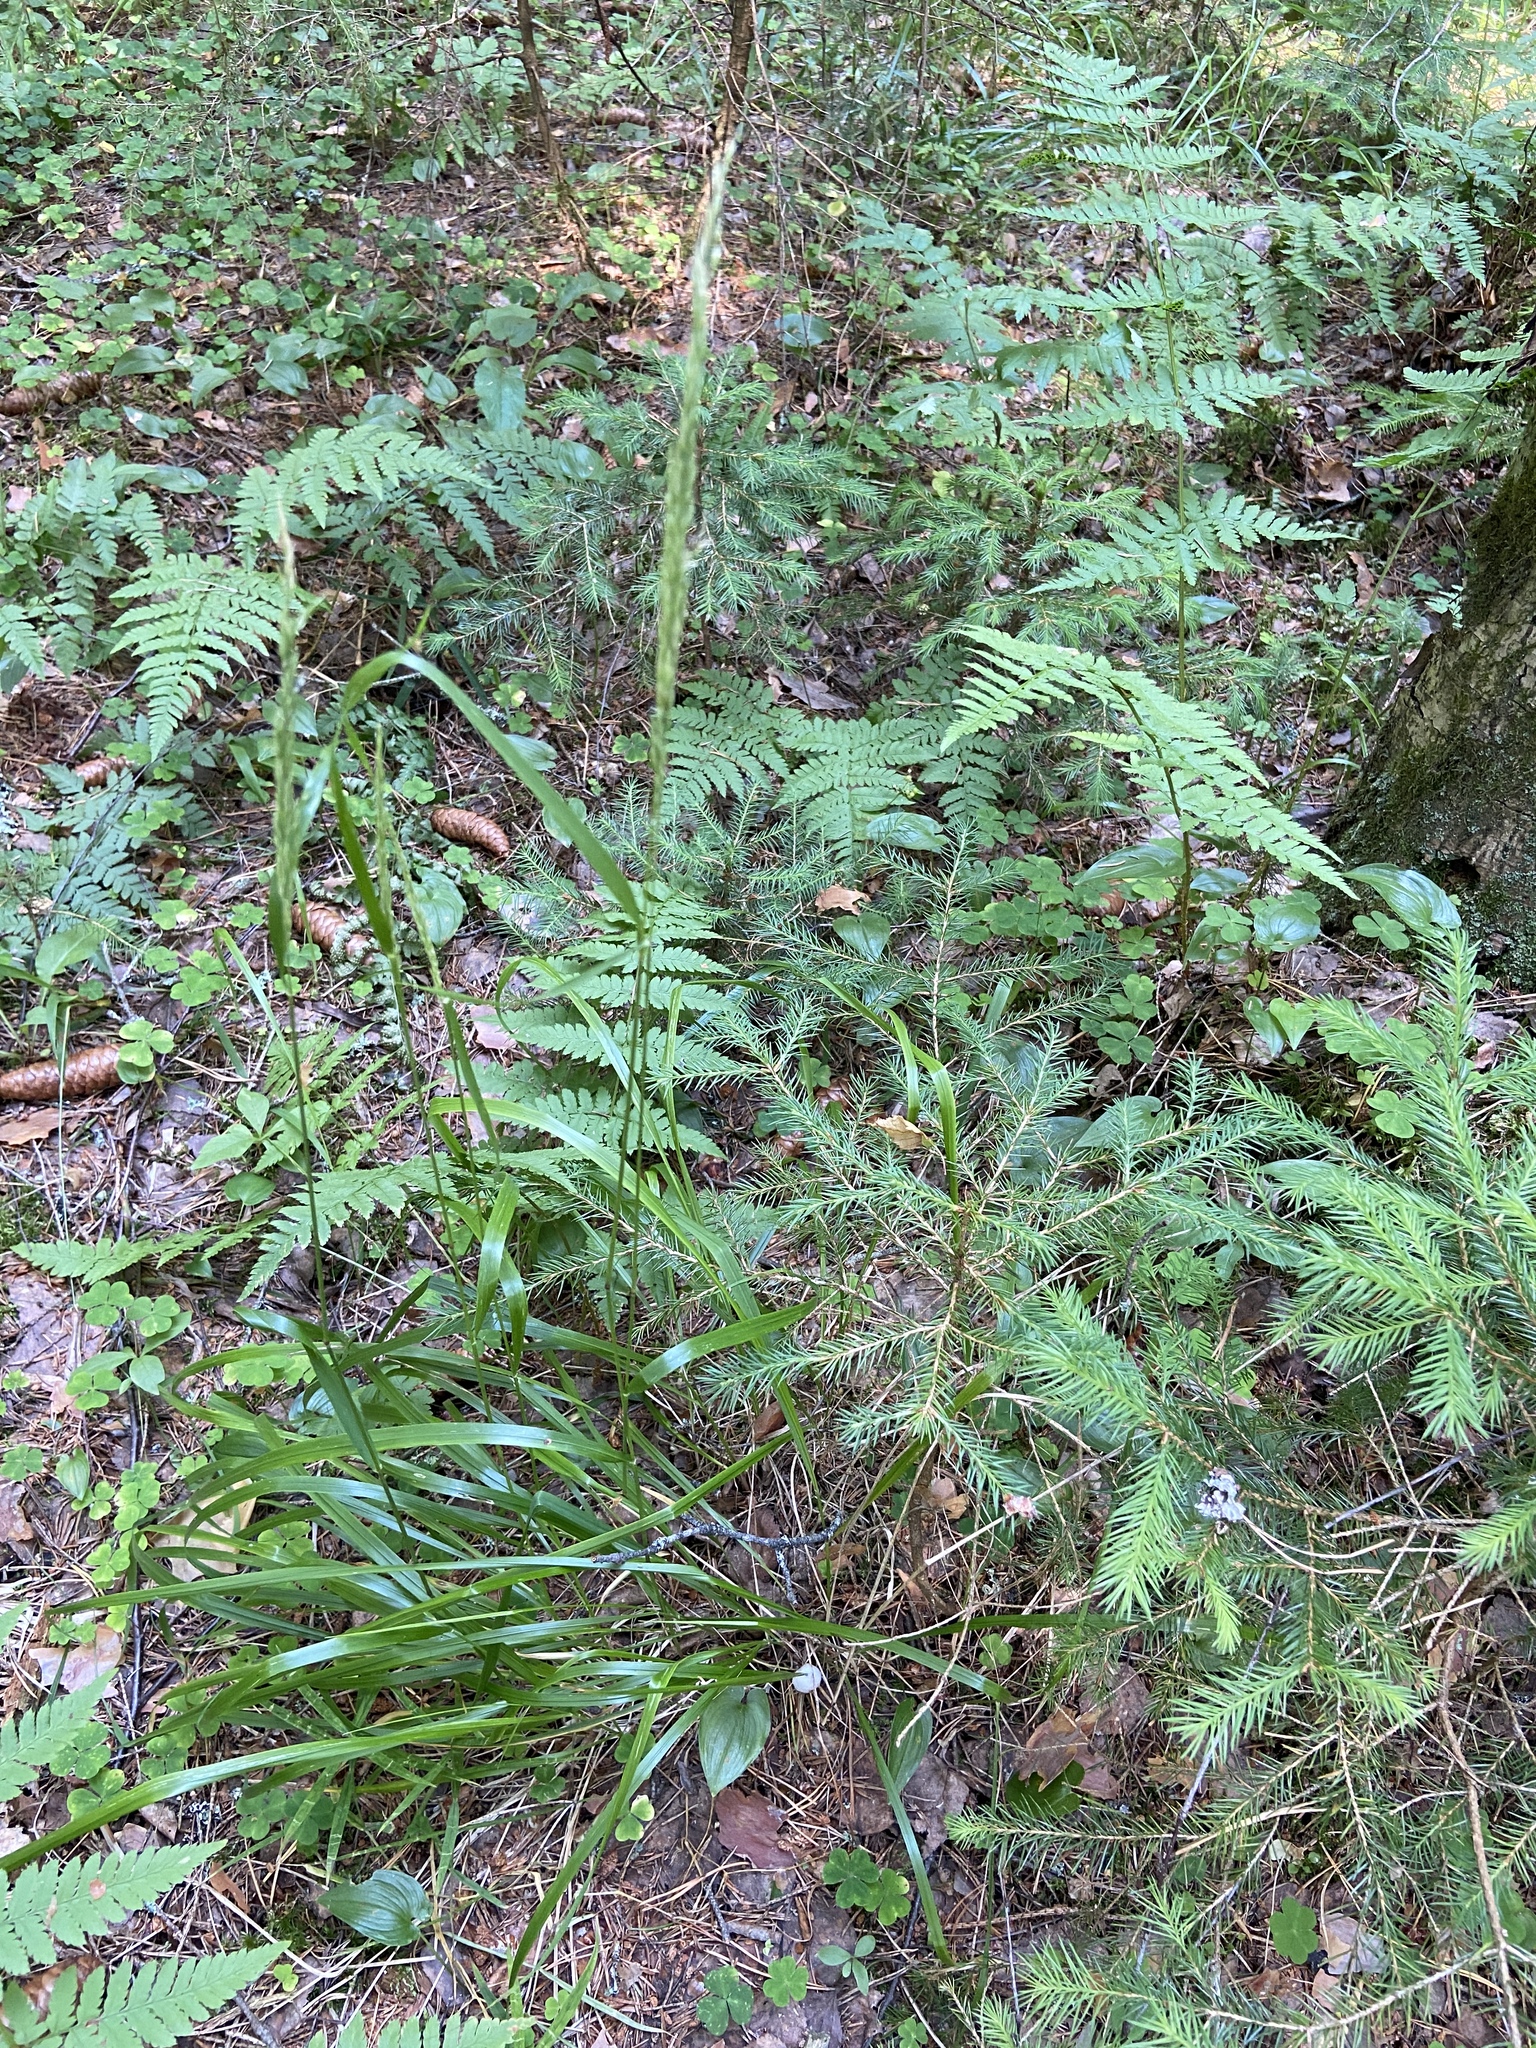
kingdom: Plantae
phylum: Tracheophyta
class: Liliopsida
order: Poales
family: Poaceae
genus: Calamagrostis
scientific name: Calamagrostis arundinacea
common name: Metskastik
